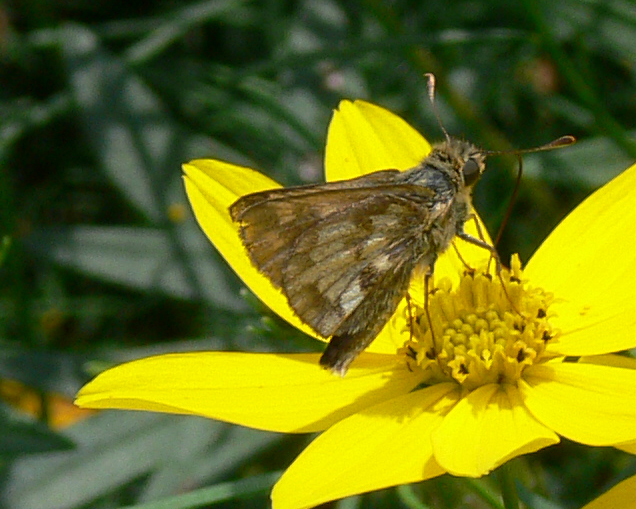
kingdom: Animalia
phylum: Arthropoda
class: Insecta
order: Lepidoptera
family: Hesperiidae
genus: Polites
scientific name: Polites coras
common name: Peck's skipper
